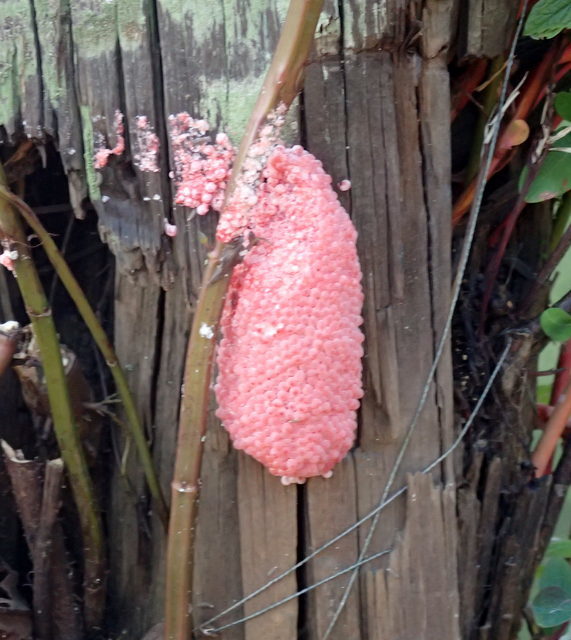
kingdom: Animalia
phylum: Mollusca
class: Gastropoda
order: Architaenioglossa
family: Ampullariidae
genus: Pomacea
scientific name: Pomacea maculata
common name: Giant applesnail
